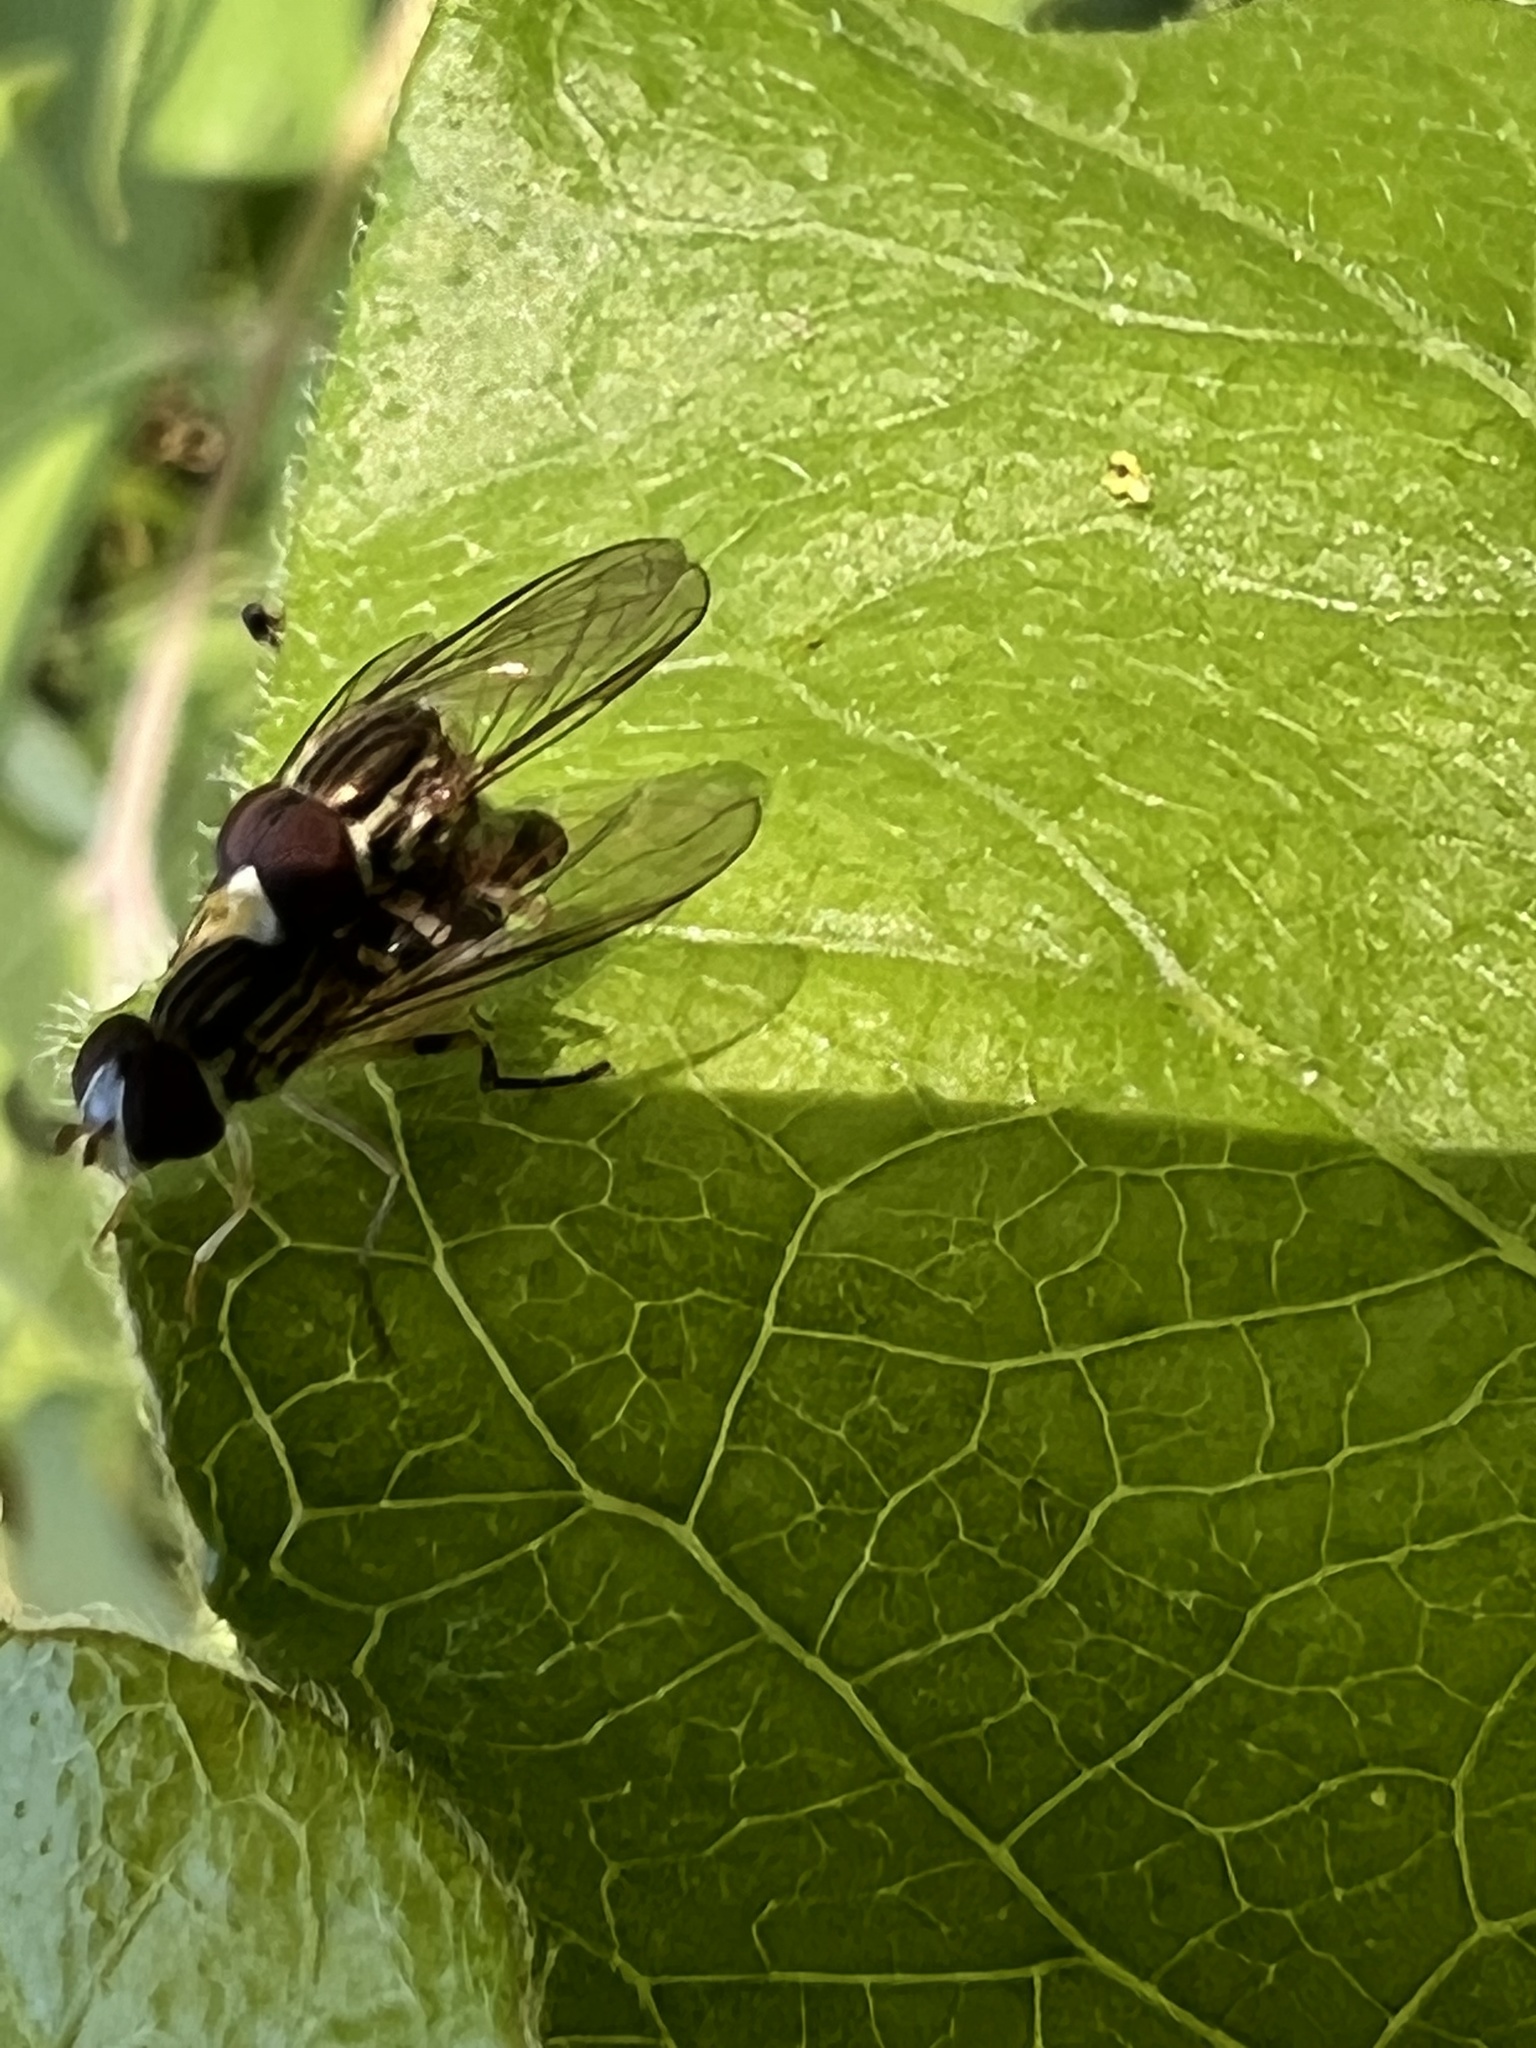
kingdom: Animalia
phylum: Arthropoda
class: Insecta
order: Diptera
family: Syrphidae
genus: Toxomerus
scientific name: Toxomerus geminatus
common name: Eastern calligrapher
